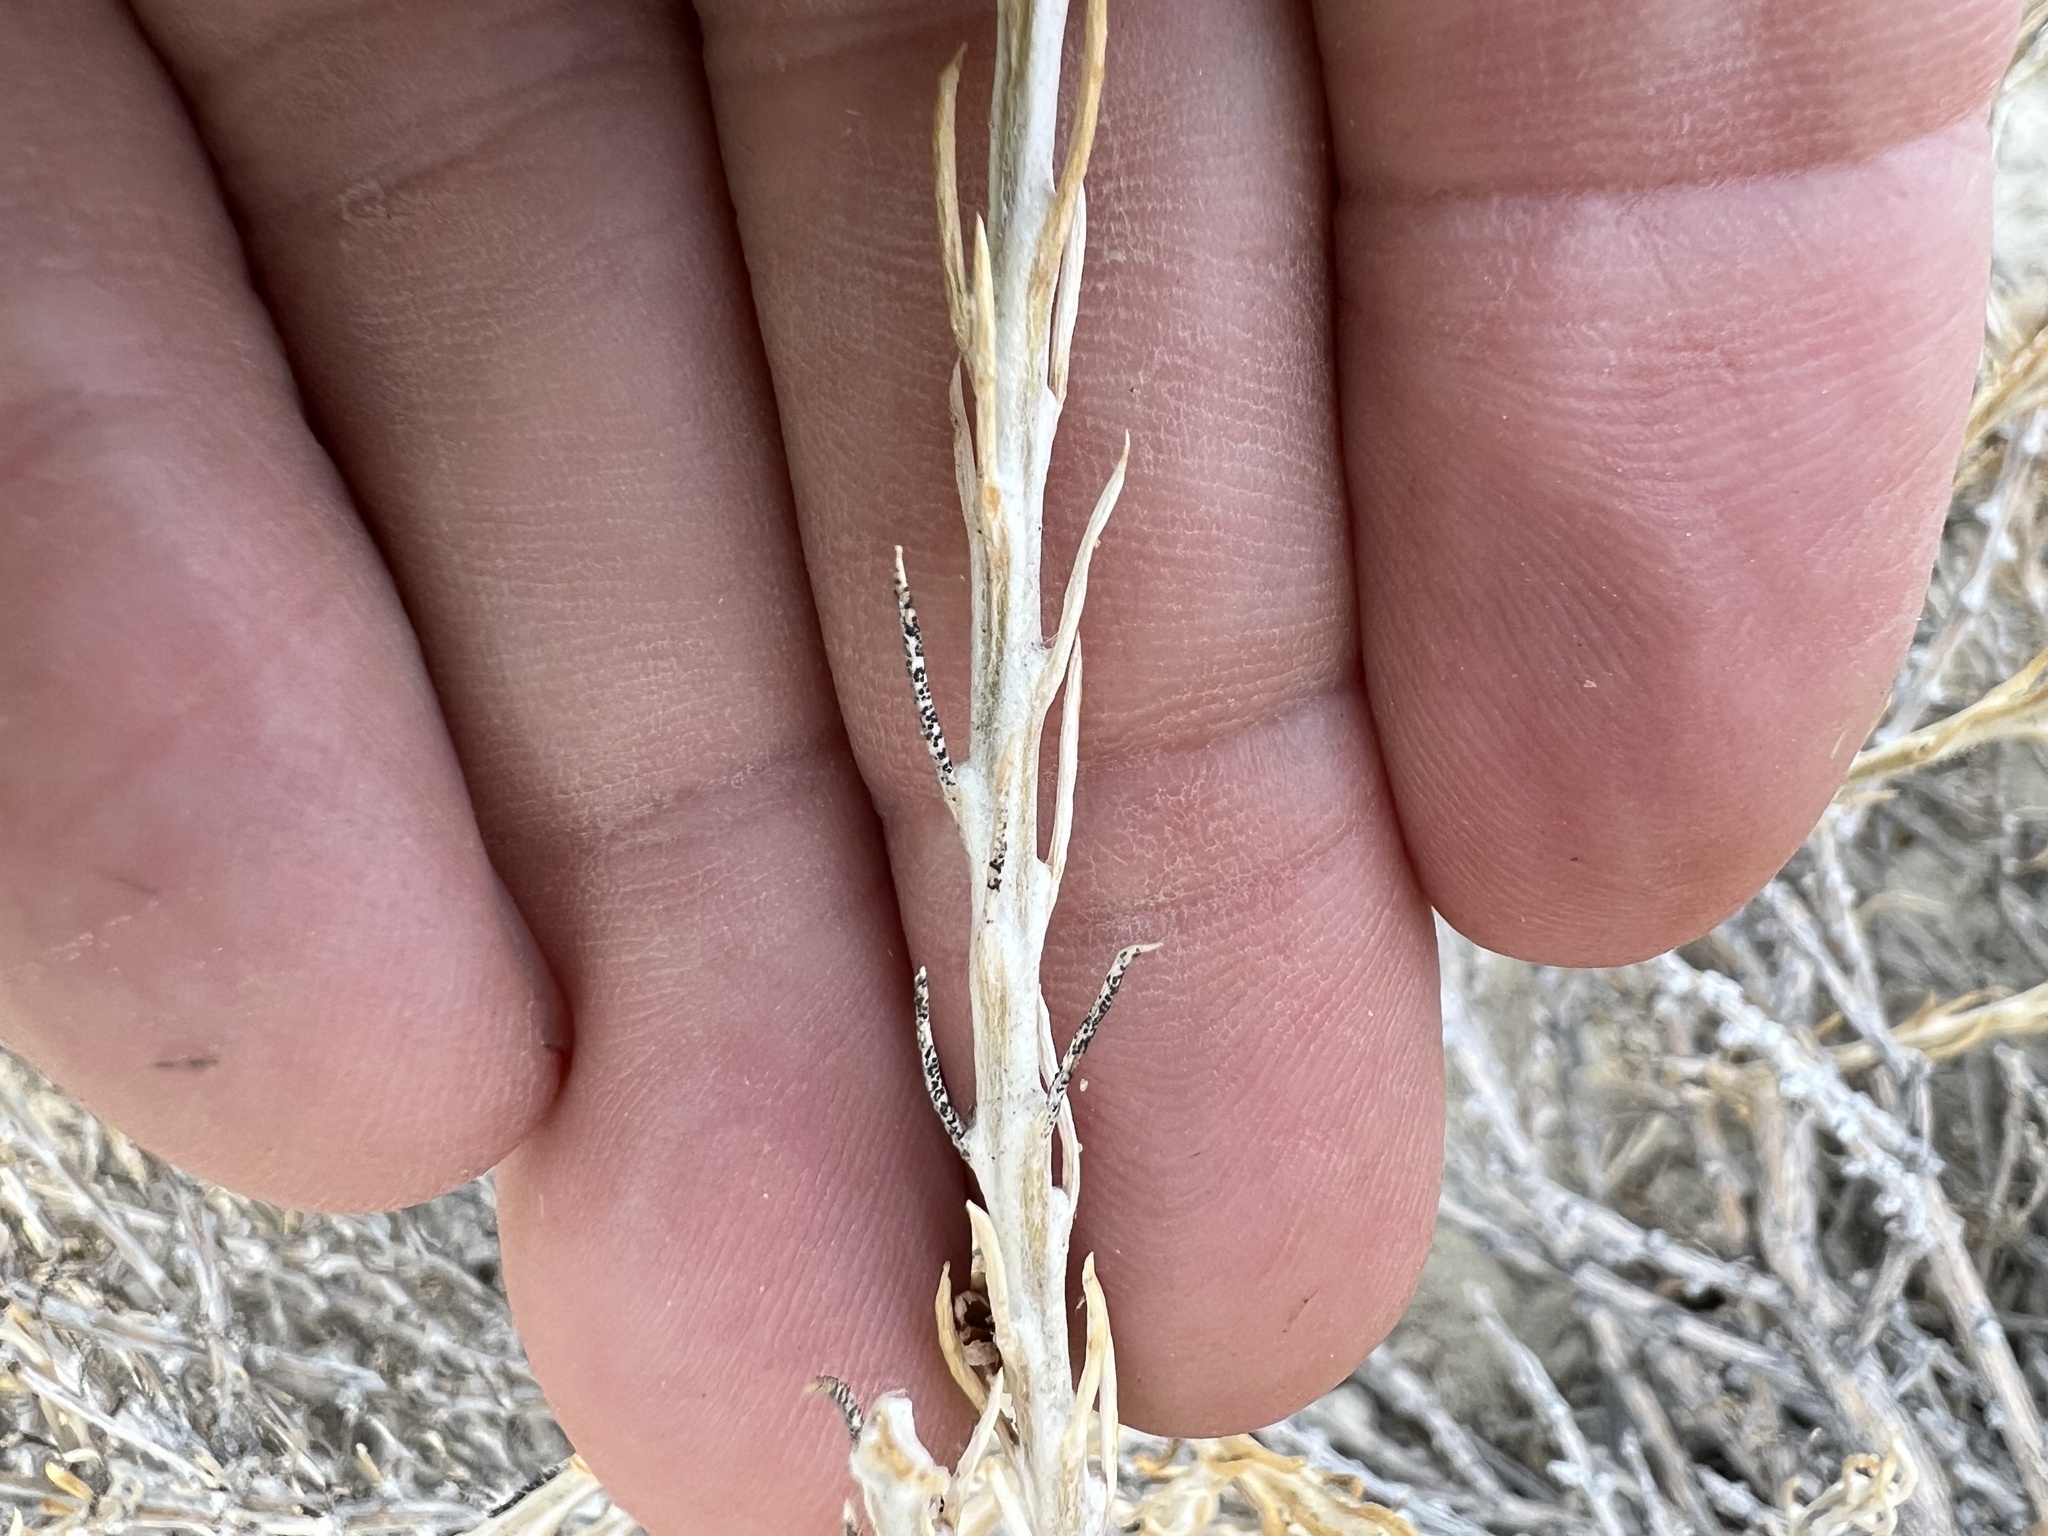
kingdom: Plantae
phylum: Tracheophyta
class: Magnoliopsida
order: Asterales
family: Asteraceae
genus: Tetradymia
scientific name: Tetradymia glabrata
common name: Smooth tetradymia
